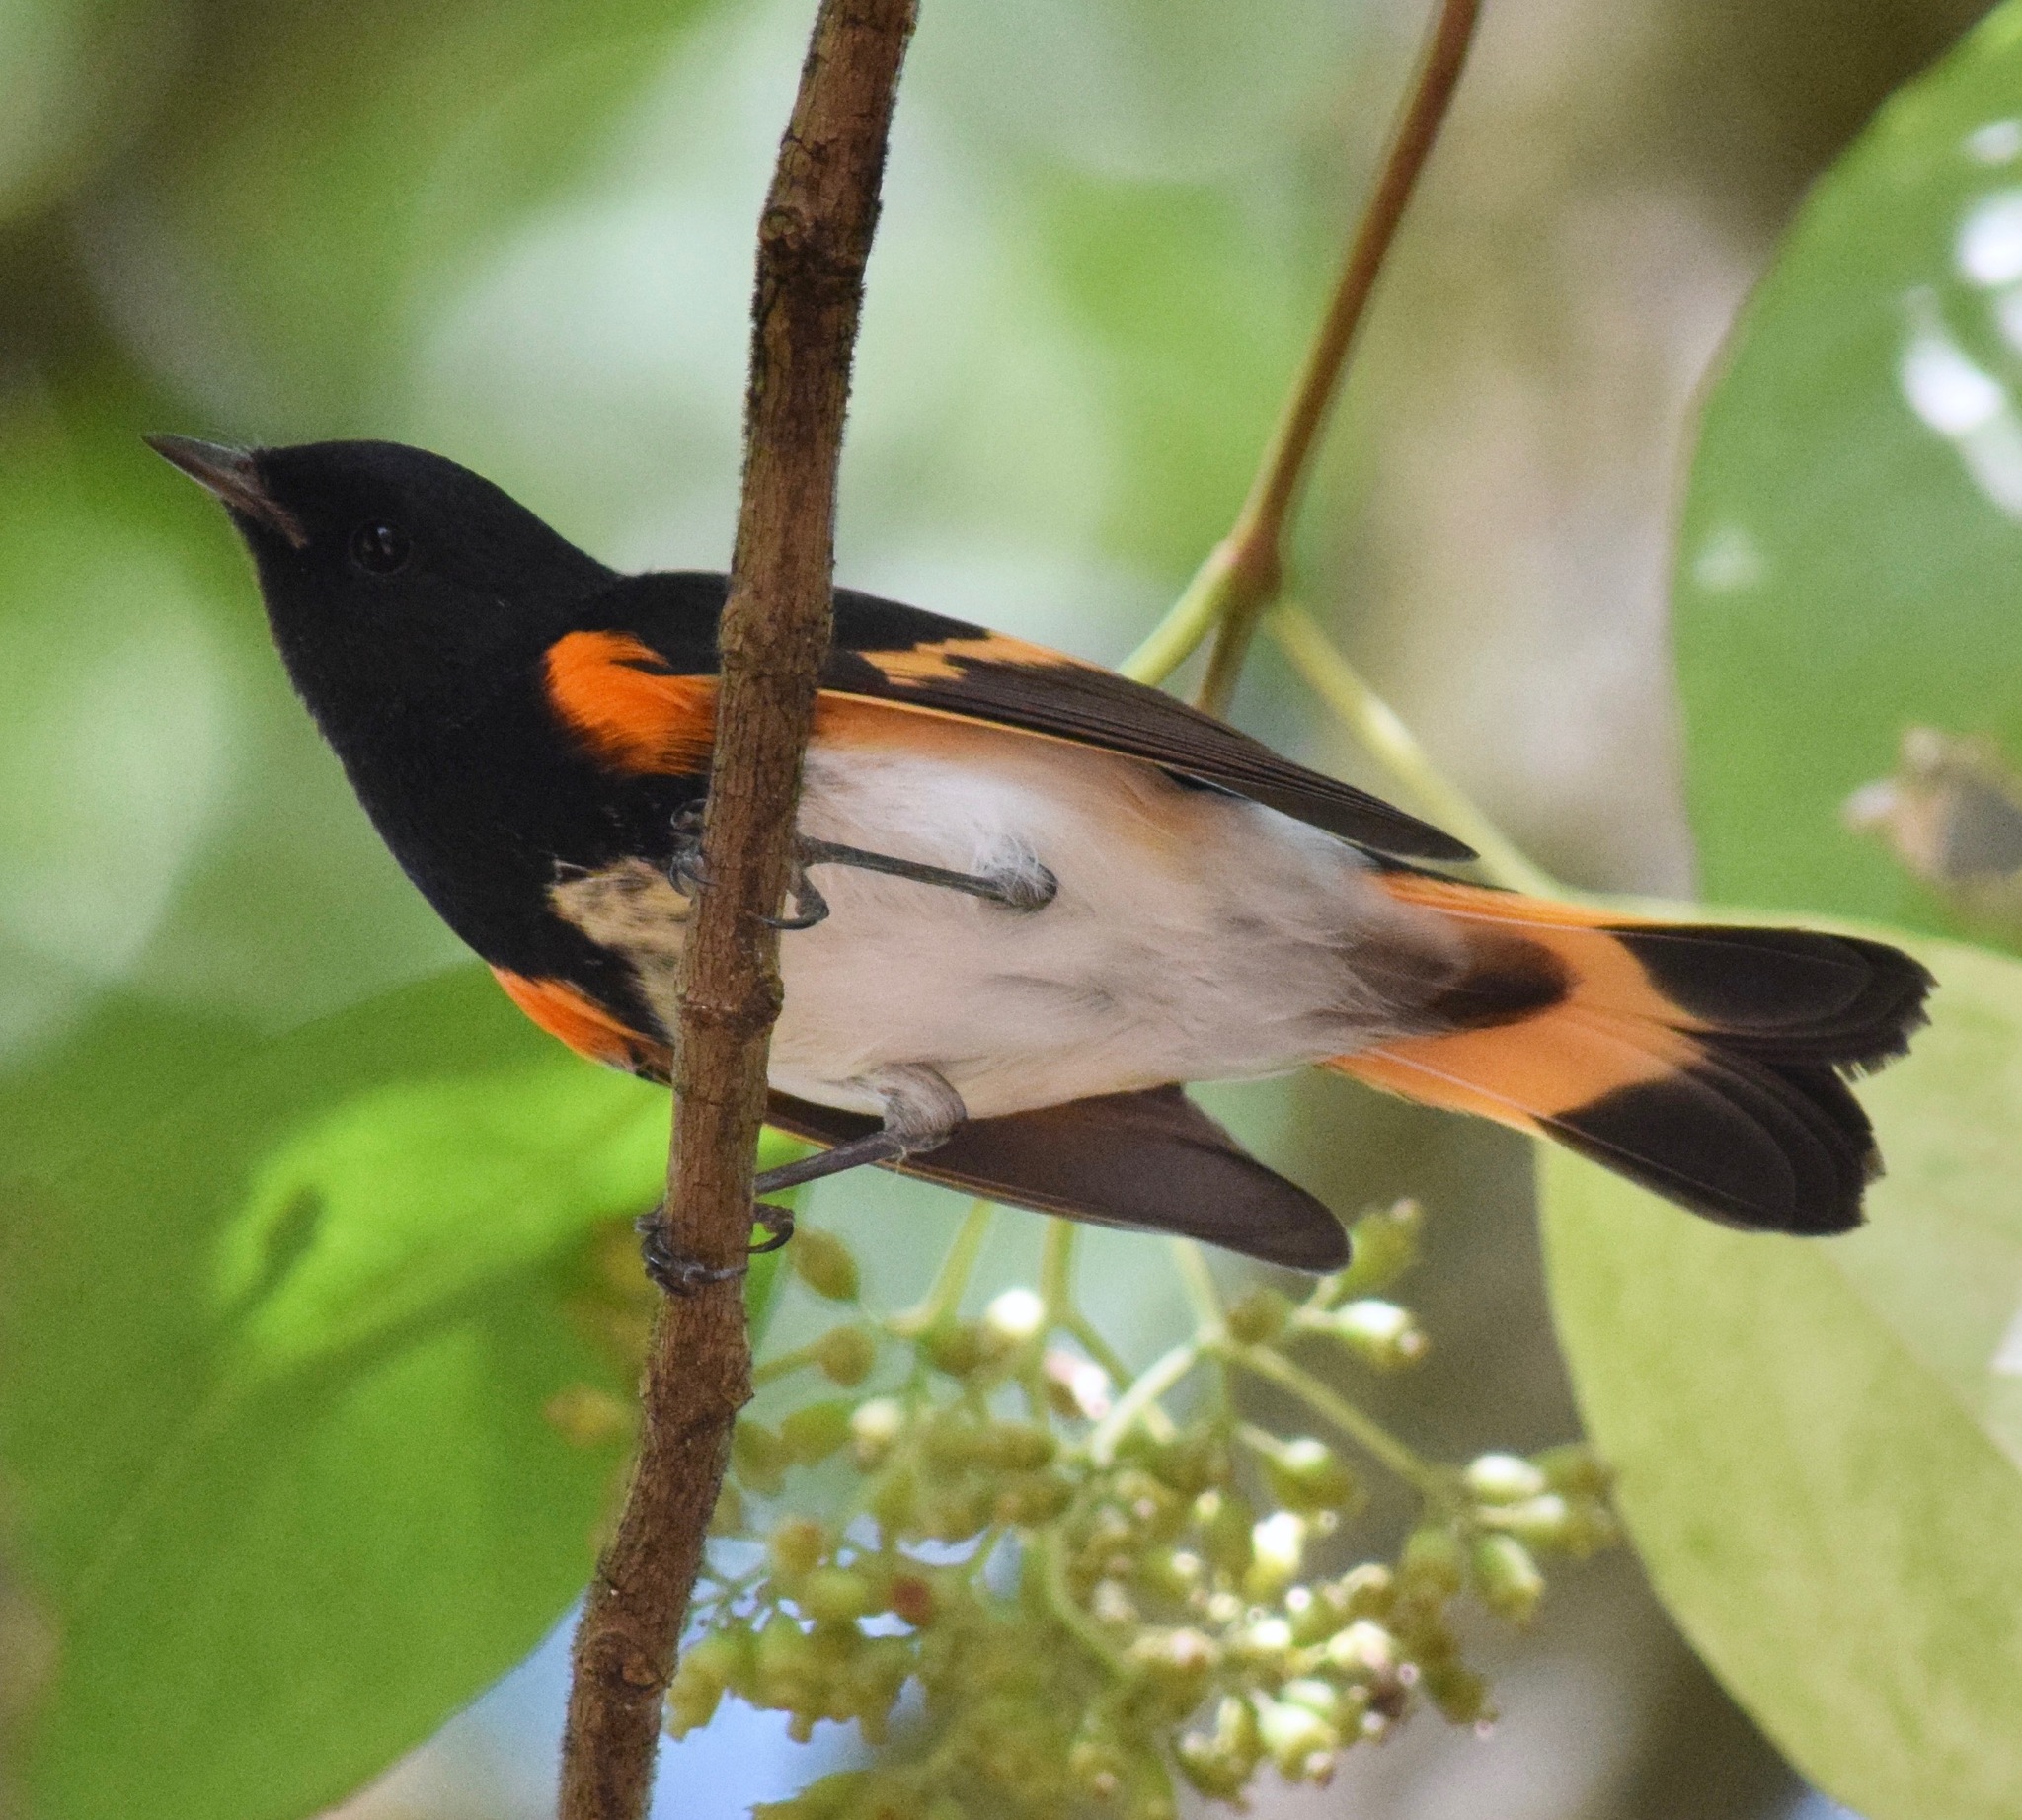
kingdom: Animalia
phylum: Chordata
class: Aves
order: Passeriformes
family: Parulidae
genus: Setophaga
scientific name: Setophaga ruticilla
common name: American redstart
